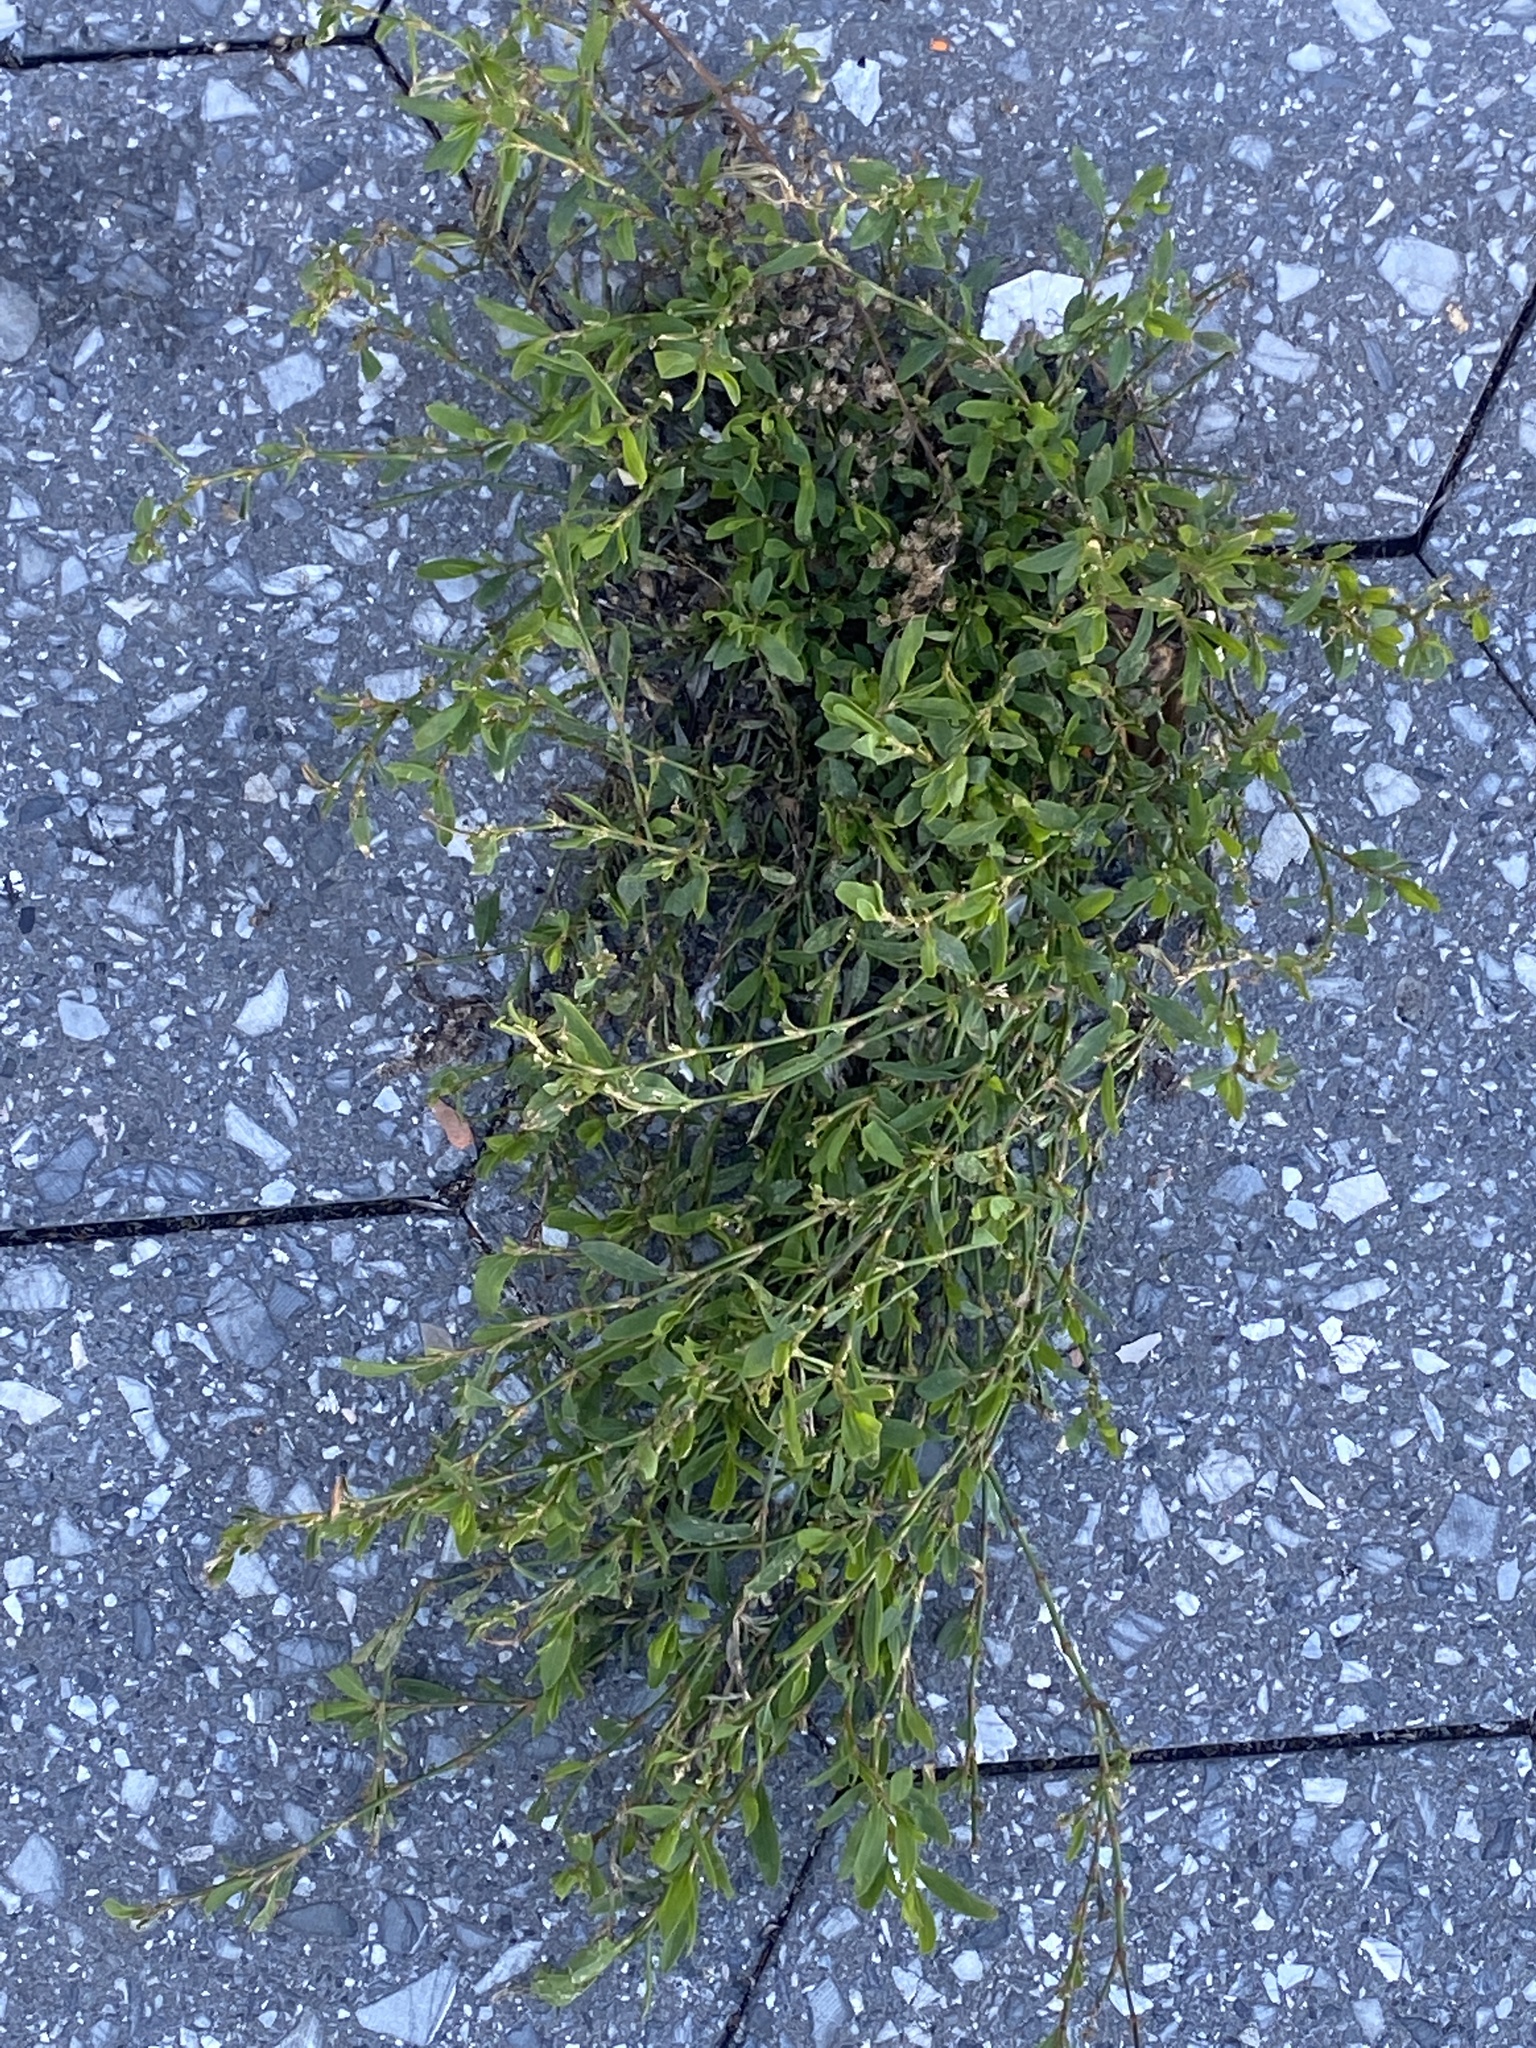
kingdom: Plantae
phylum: Tracheophyta
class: Magnoliopsida
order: Caryophyllales
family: Polygonaceae
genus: Polygonum
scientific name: Polygonum aviculare
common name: Prostrate knotweed
